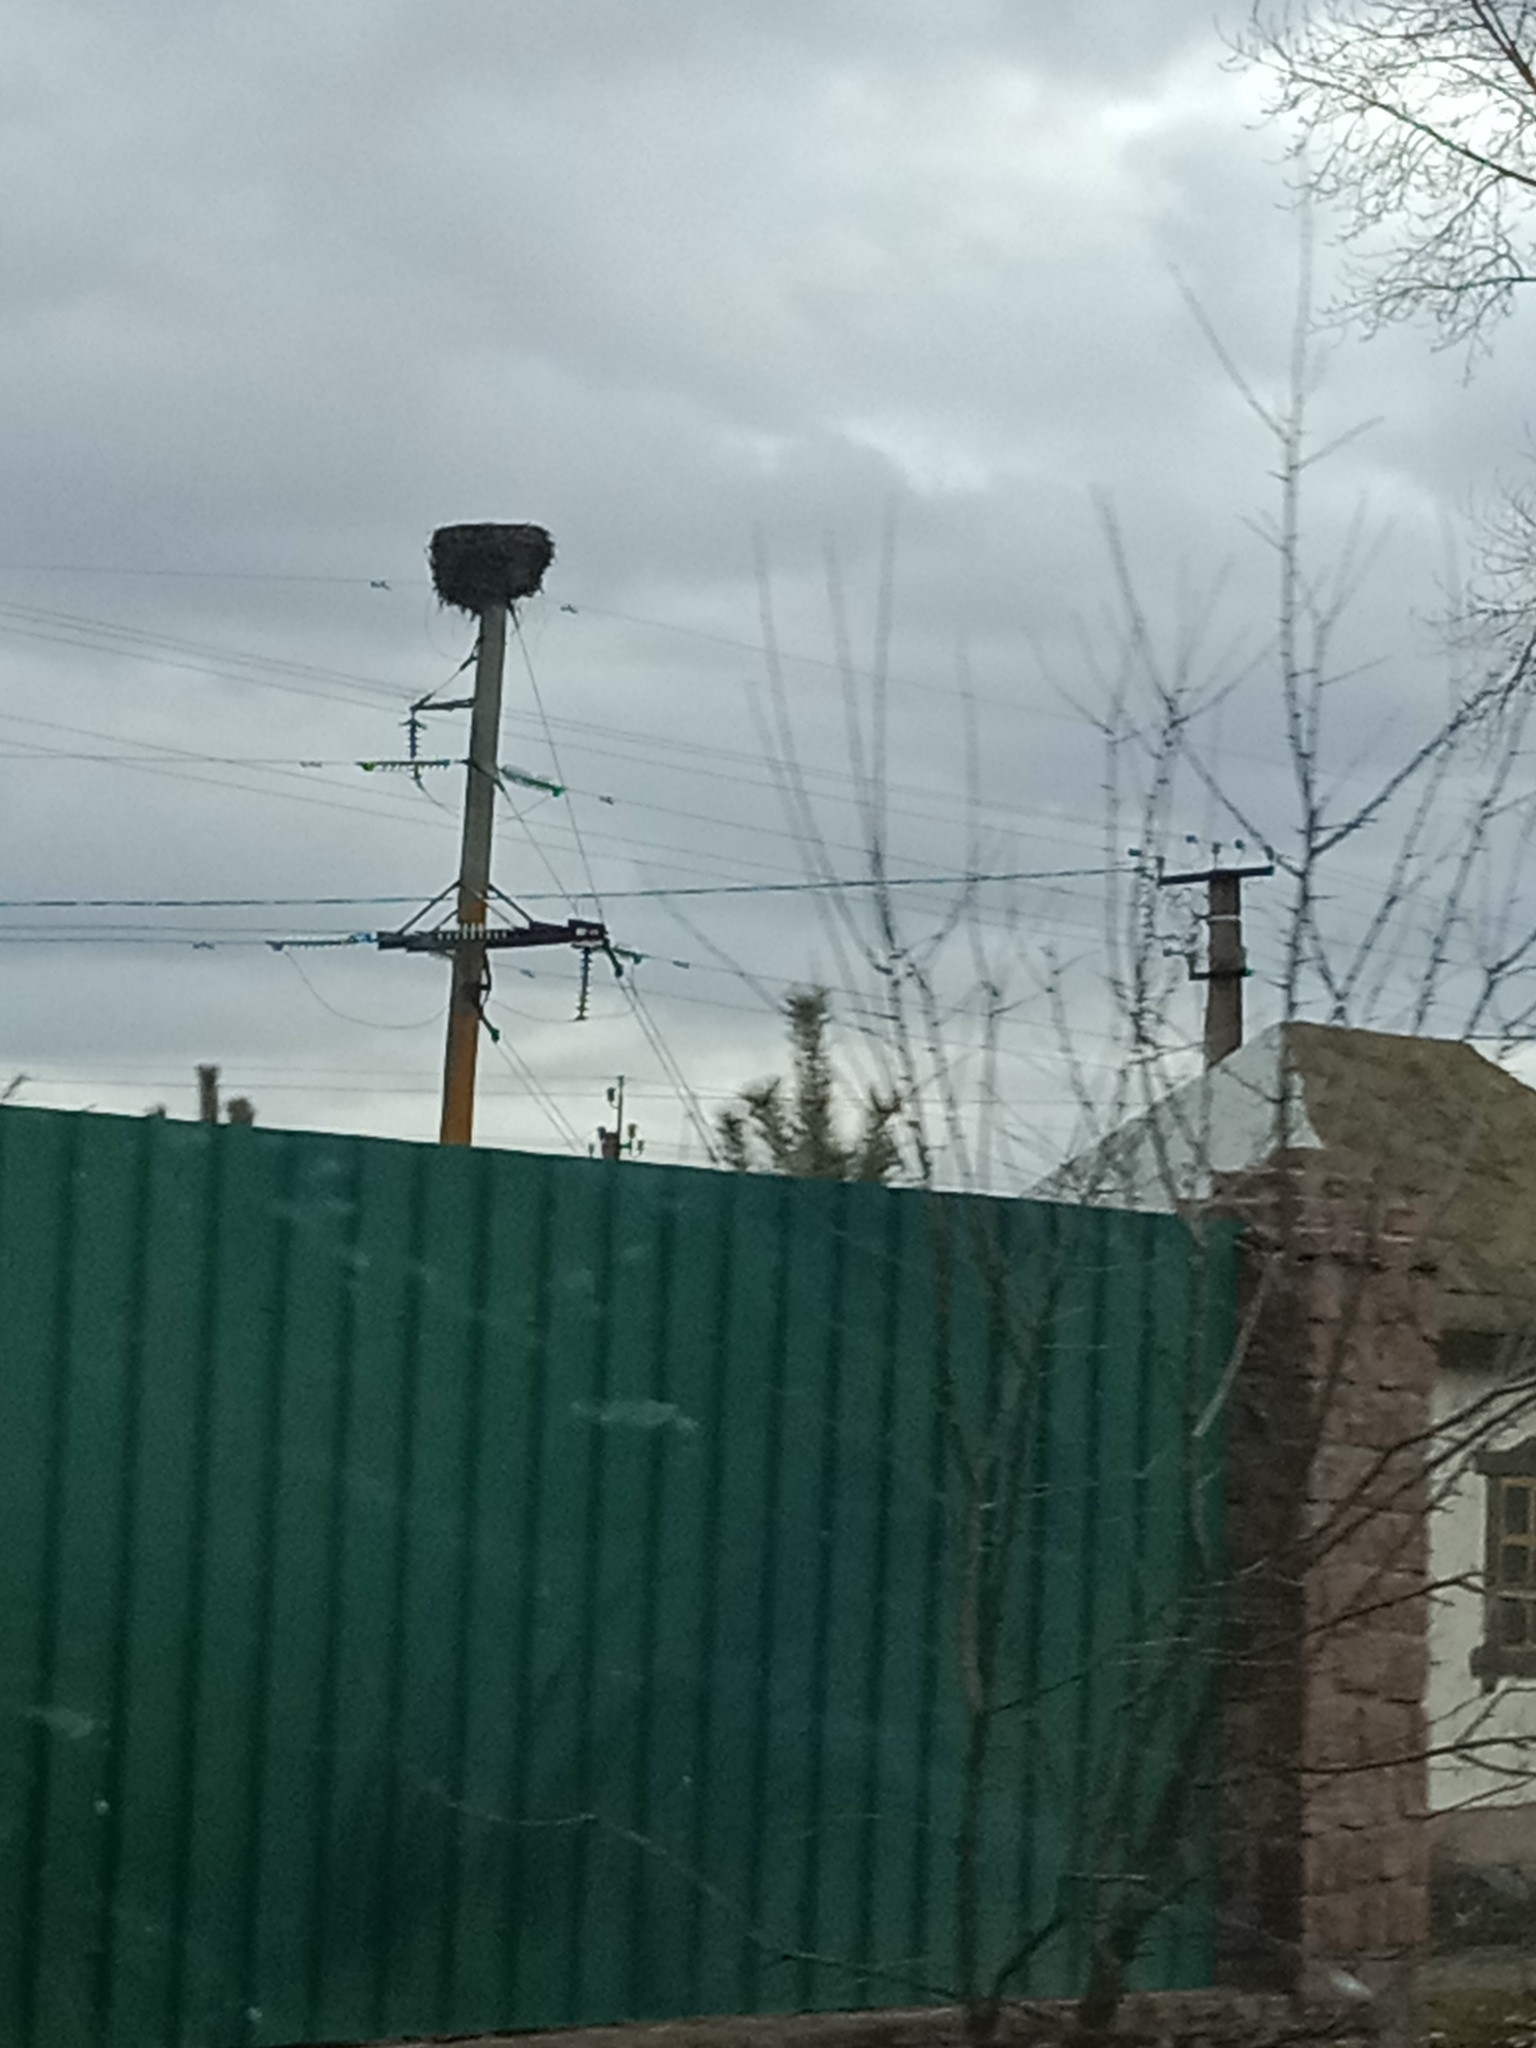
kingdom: Animalia
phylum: Chordata
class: Aves
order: Ciconiiformes
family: Ciconiidae
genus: Ciconia
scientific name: Ciconia ciconia
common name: White stork
